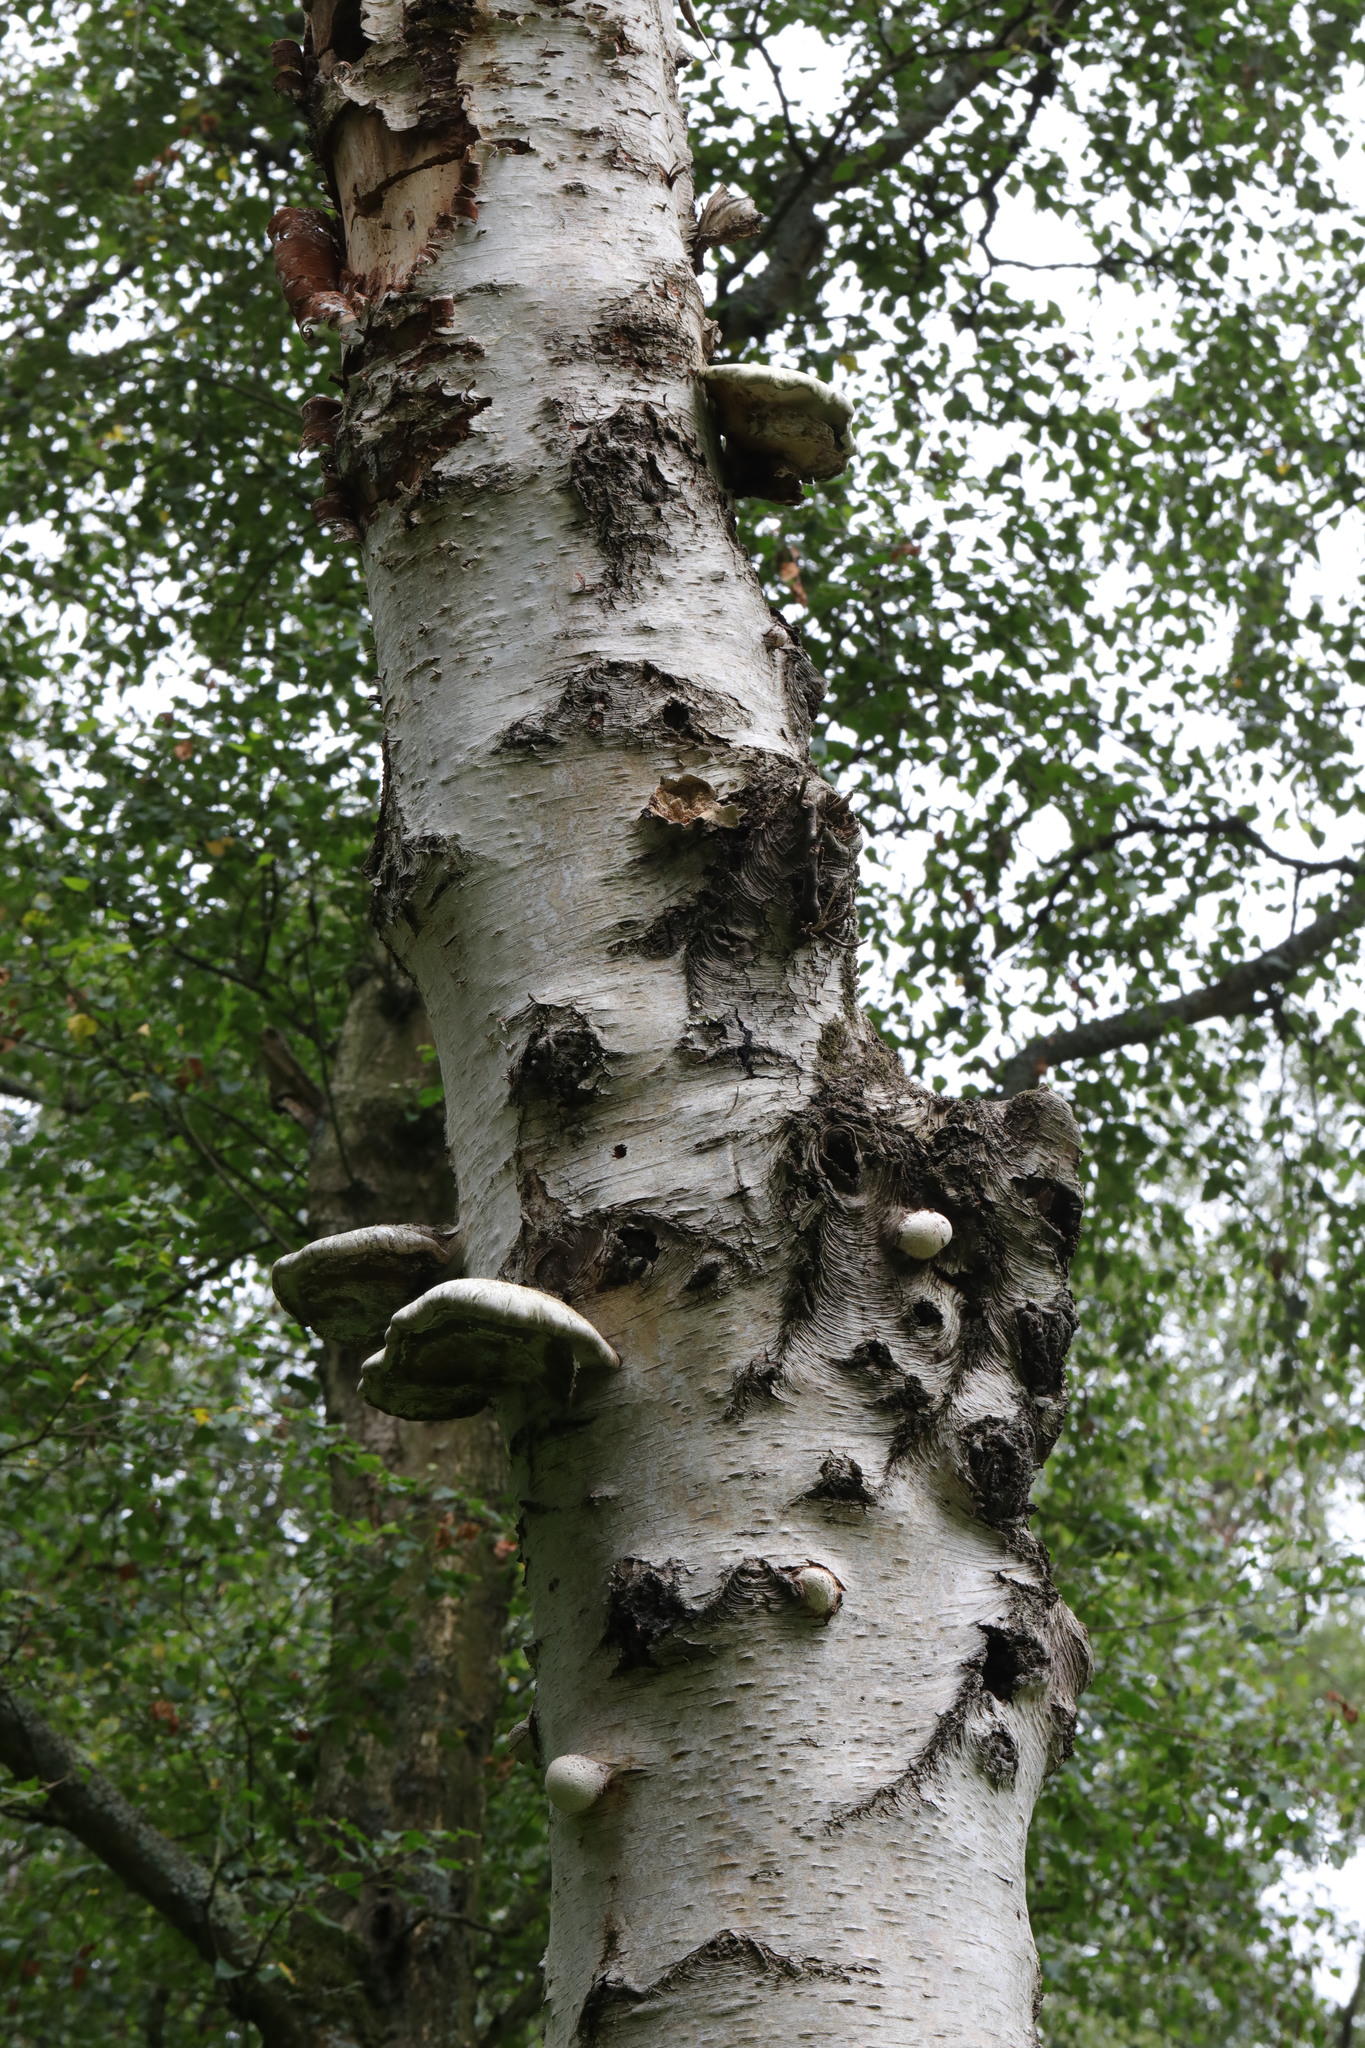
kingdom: Fungi
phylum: Basidiomycota
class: Agaricomycetes
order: Polyporales
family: Fomitopsidaceae
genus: Fomitopsis
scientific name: Fomitopsis betulina
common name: Birch polypore
